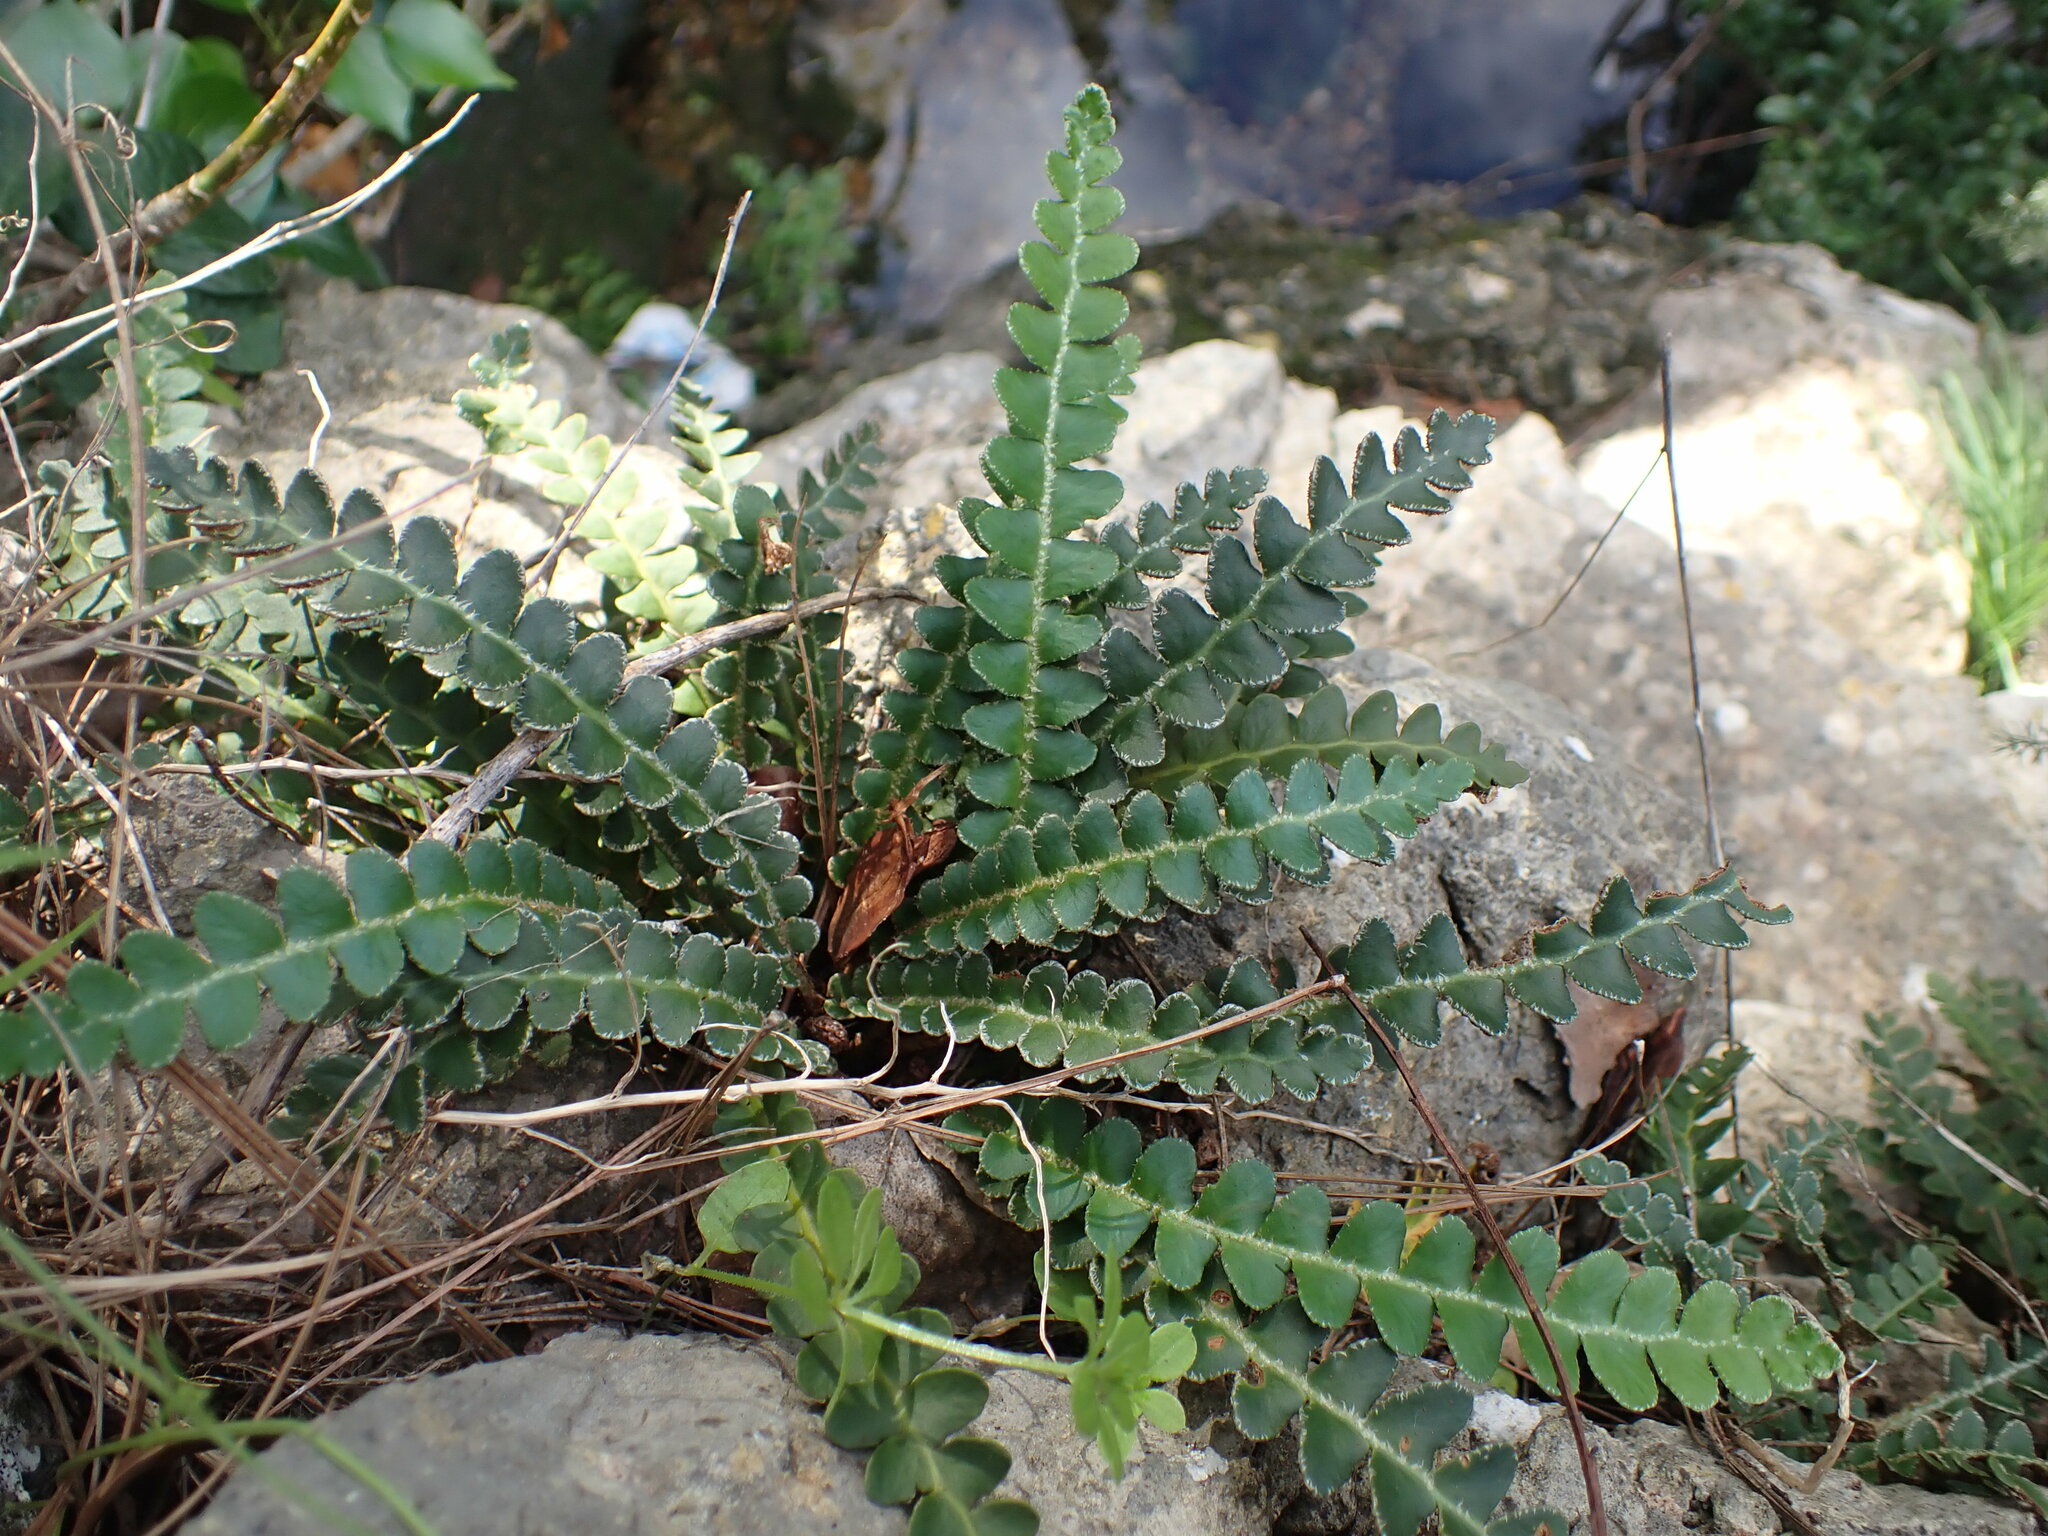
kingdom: Plantae
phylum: Tracheophyta
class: Polypodiopsida
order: Polypodiales
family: Aspleniaceae
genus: Asplenium
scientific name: Asplenium ceterach
